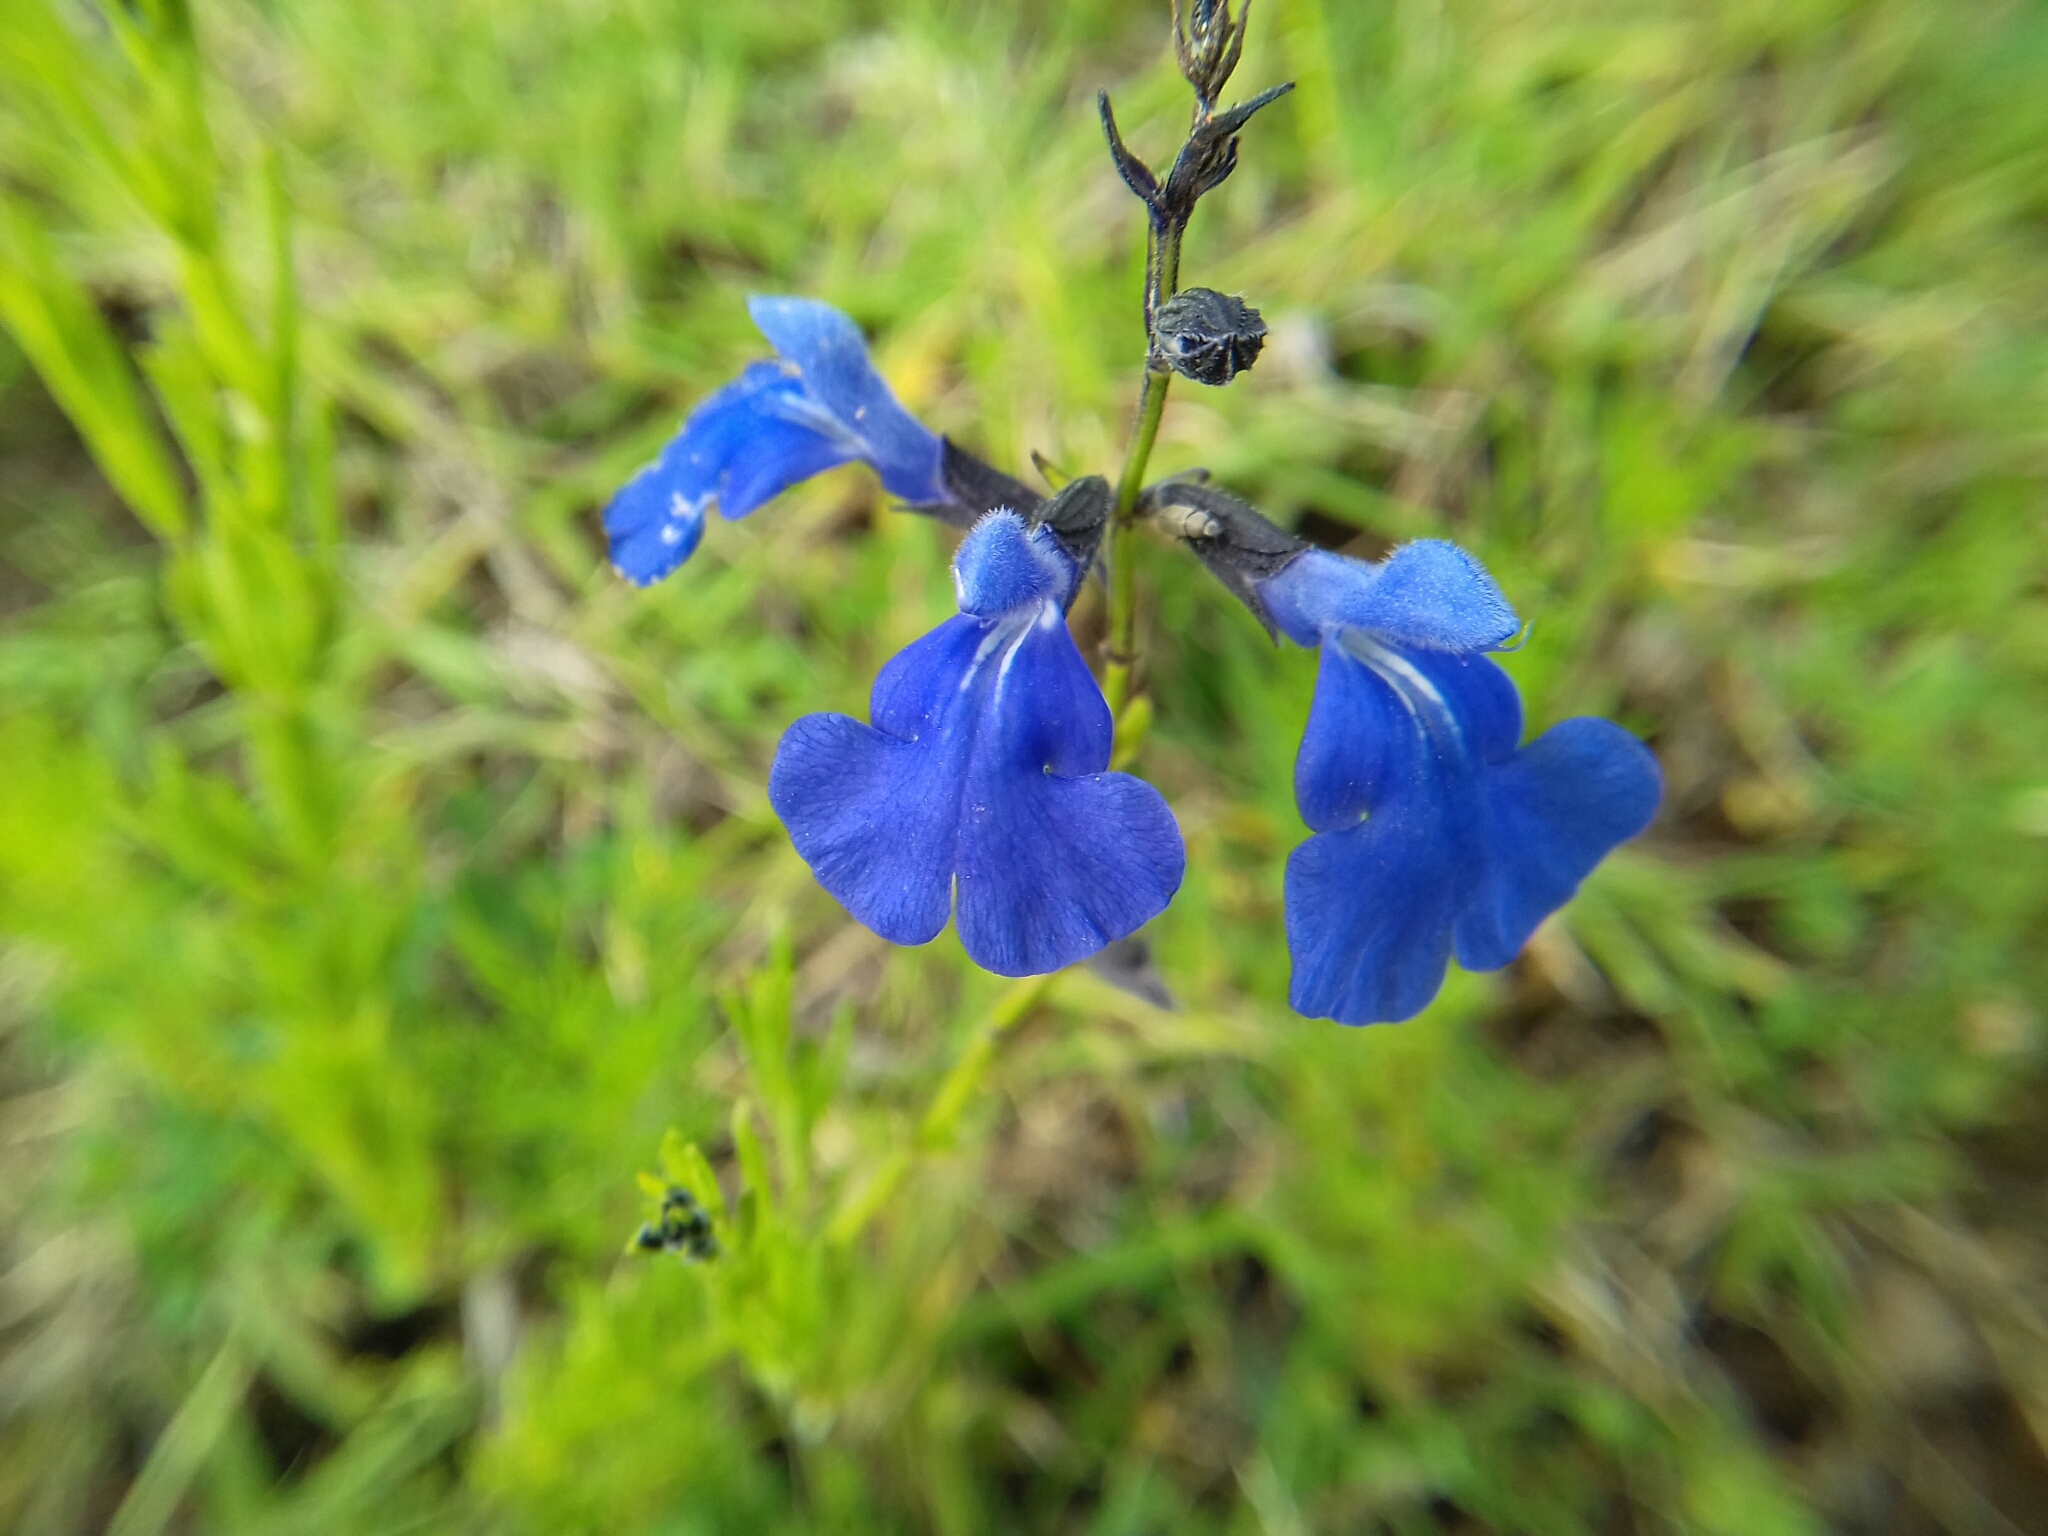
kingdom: Plantae
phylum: Tracheophyta
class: Magnoliopsida
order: Lamiales
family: Lamiaceae
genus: Salvia
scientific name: Salvia reptans
